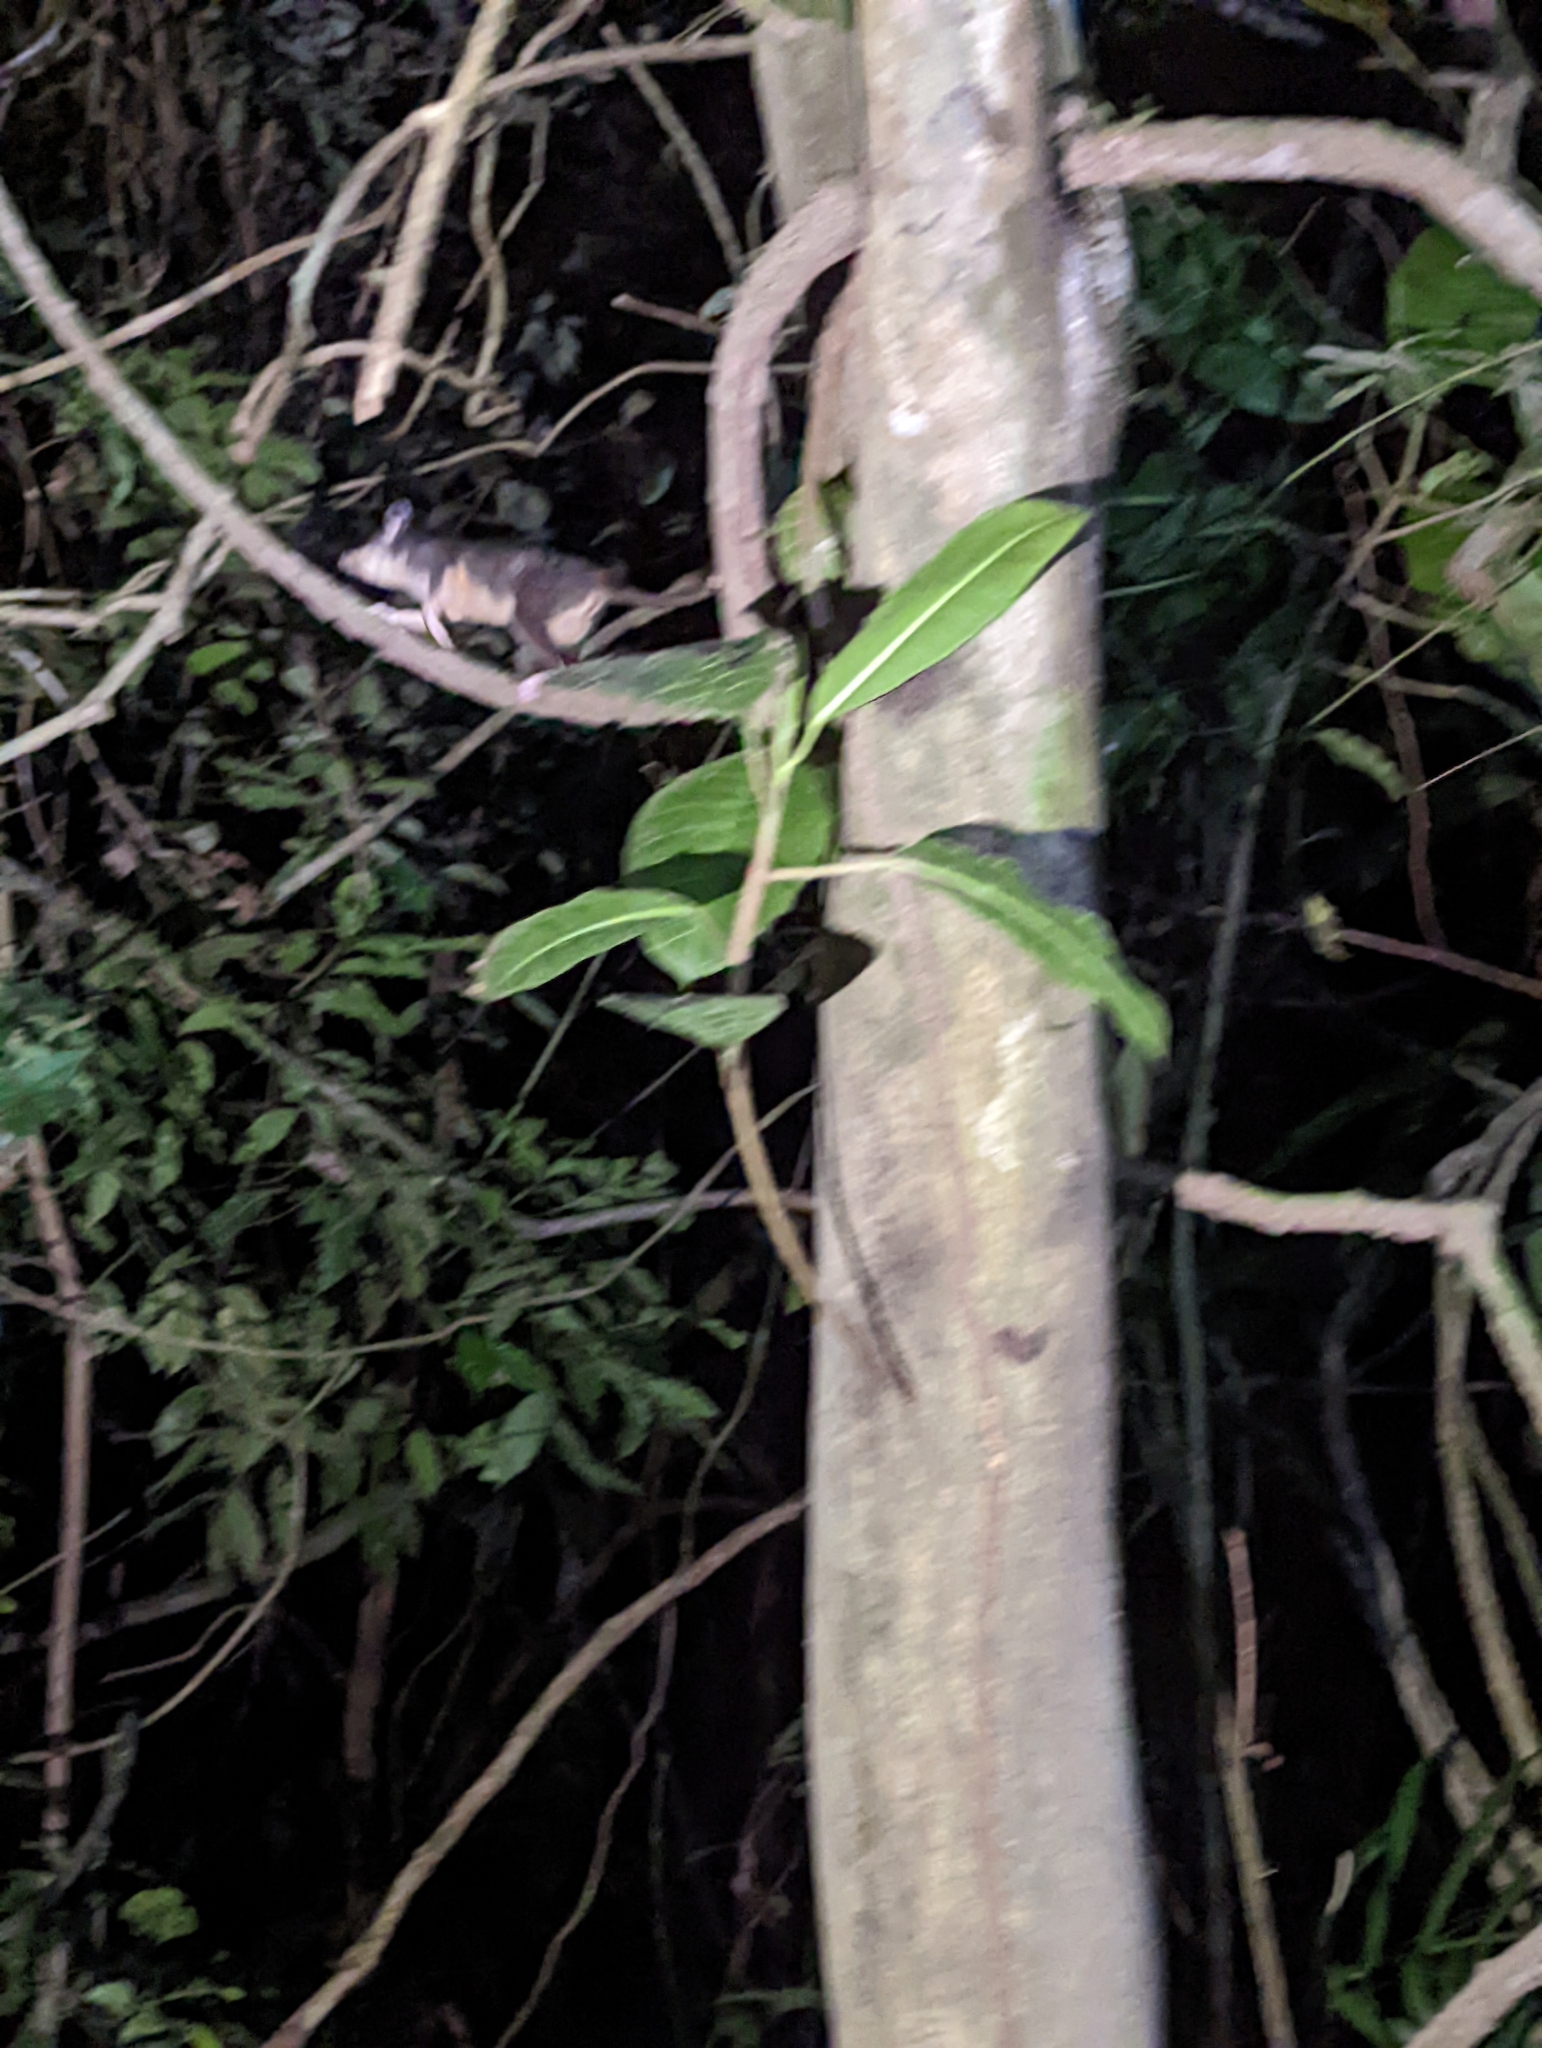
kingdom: Animalia
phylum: Chordata
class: Mammalia
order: Didelphimorphia
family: Didelphidae
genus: Philander
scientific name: Philander
